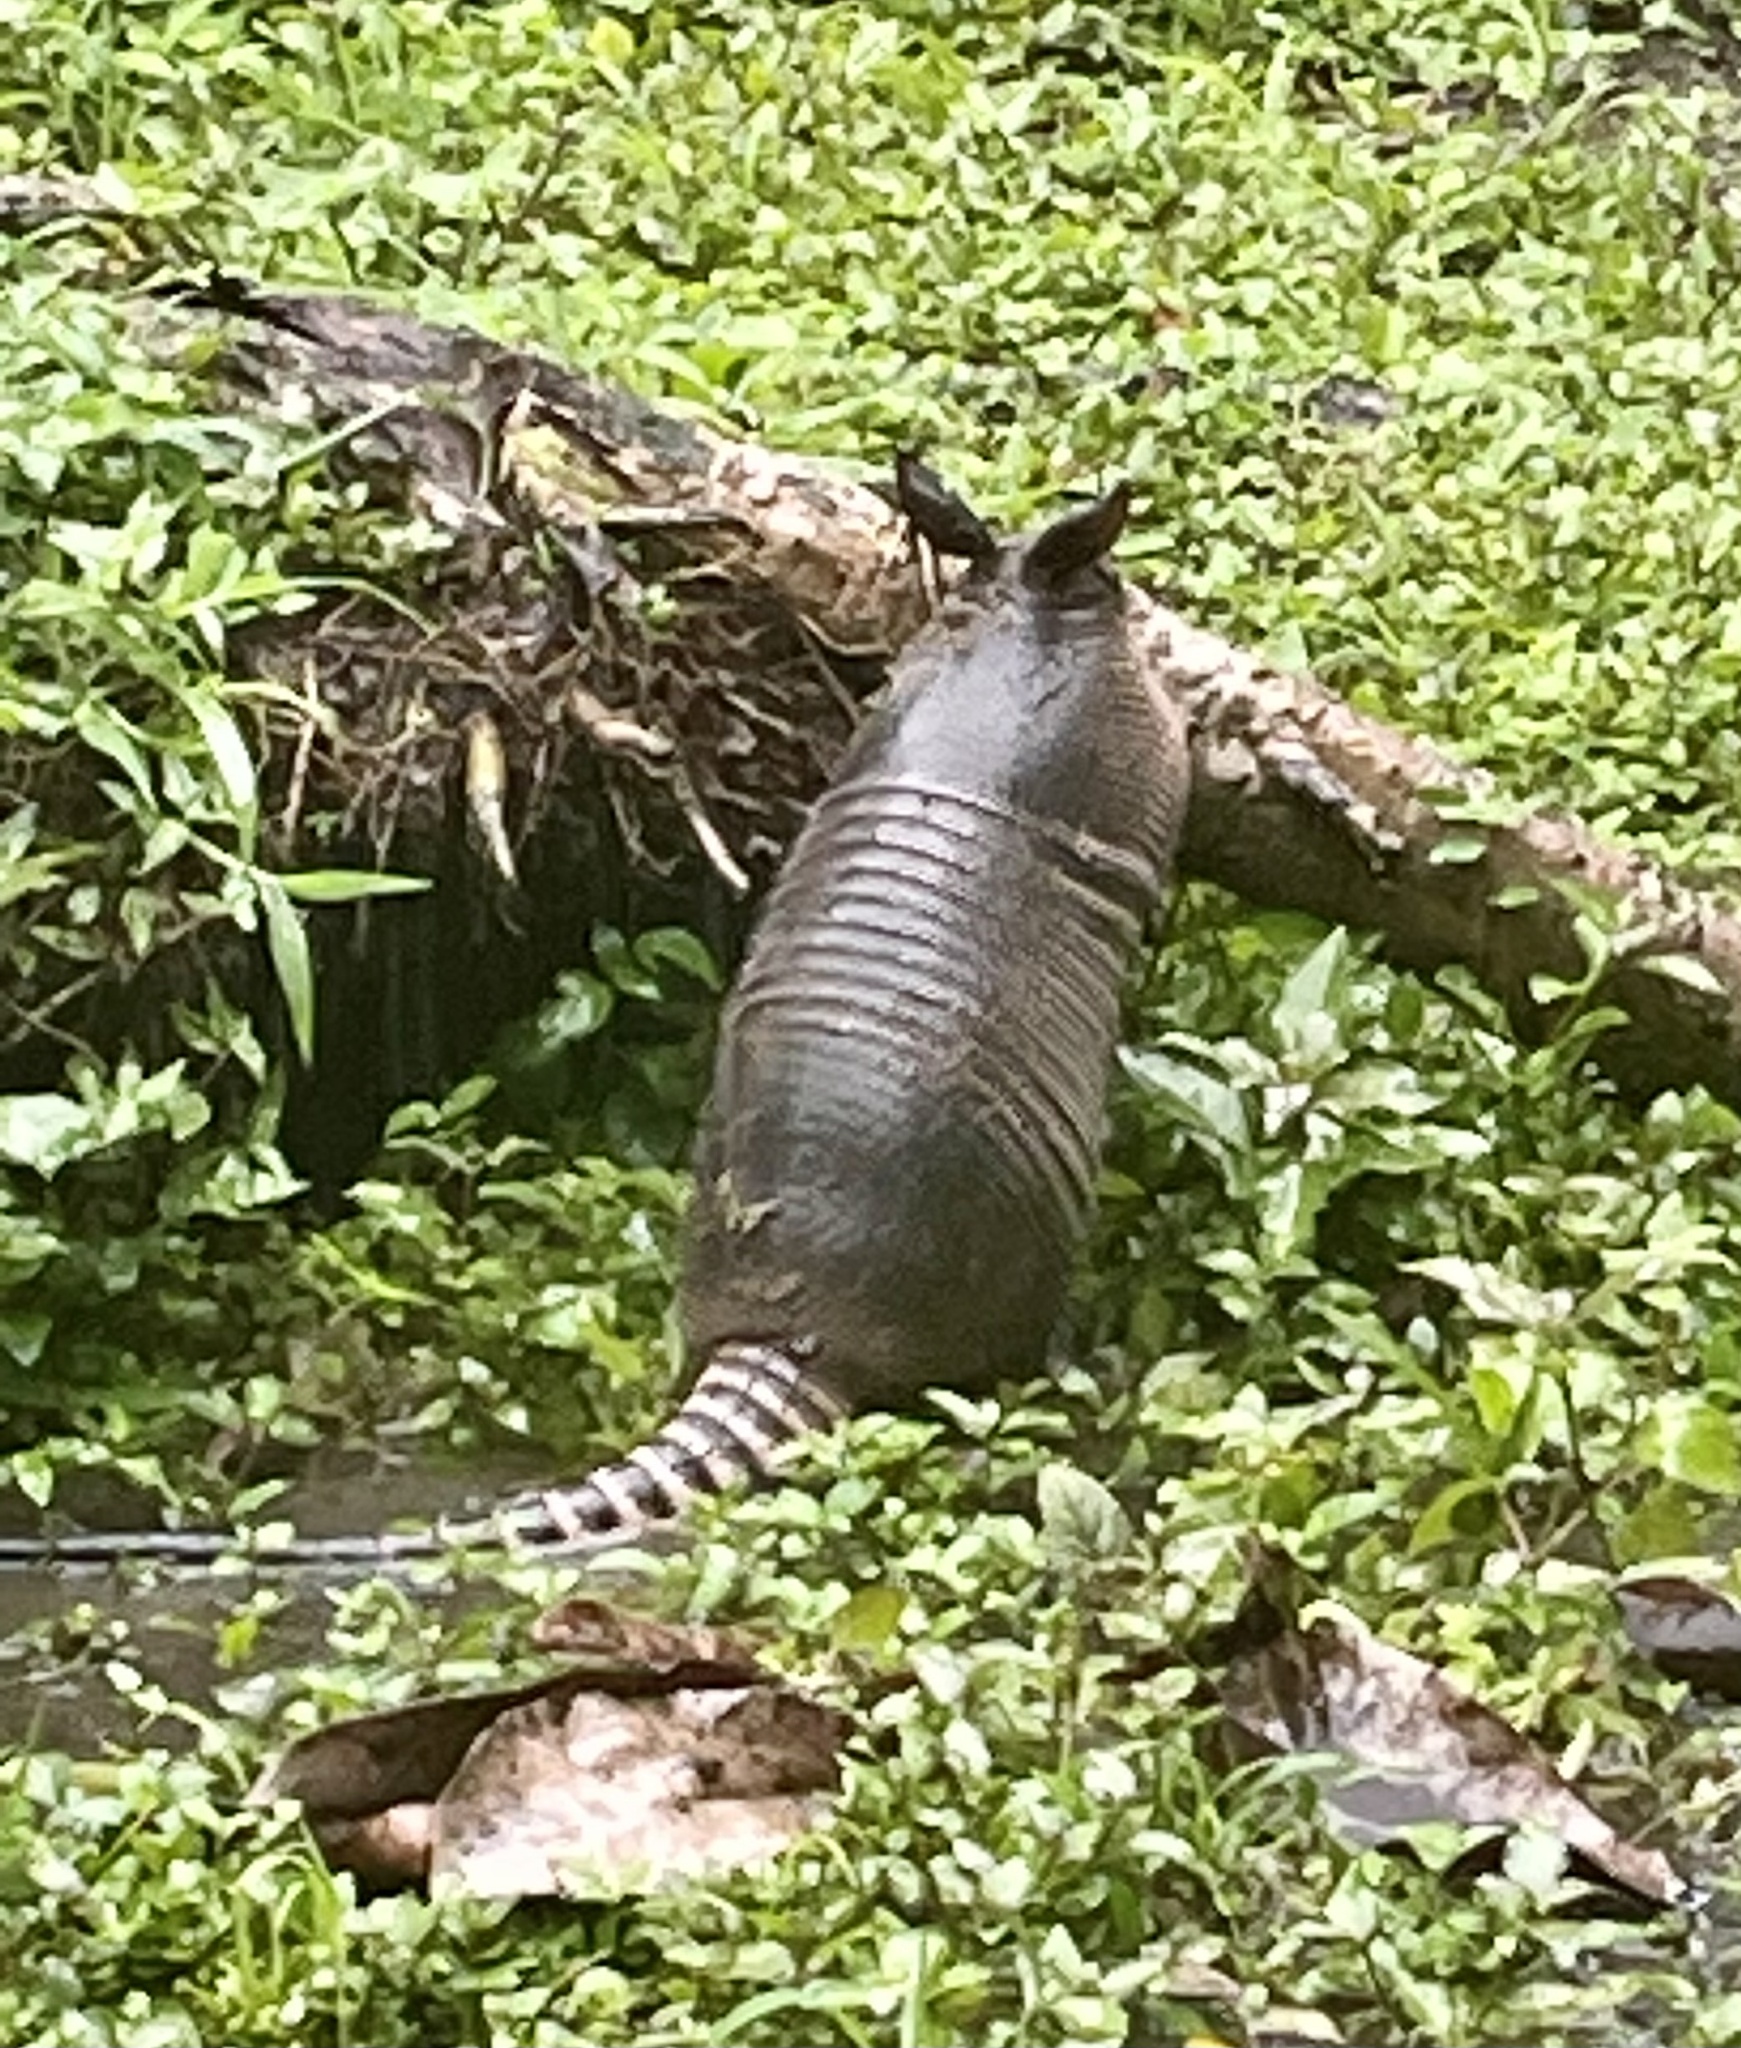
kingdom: Animalia
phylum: Chordata
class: Mammalia
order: Cingulata
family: Dasypodidae
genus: Dasypus
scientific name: Dasypus novemcinctus
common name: Nine-banded armadillo
